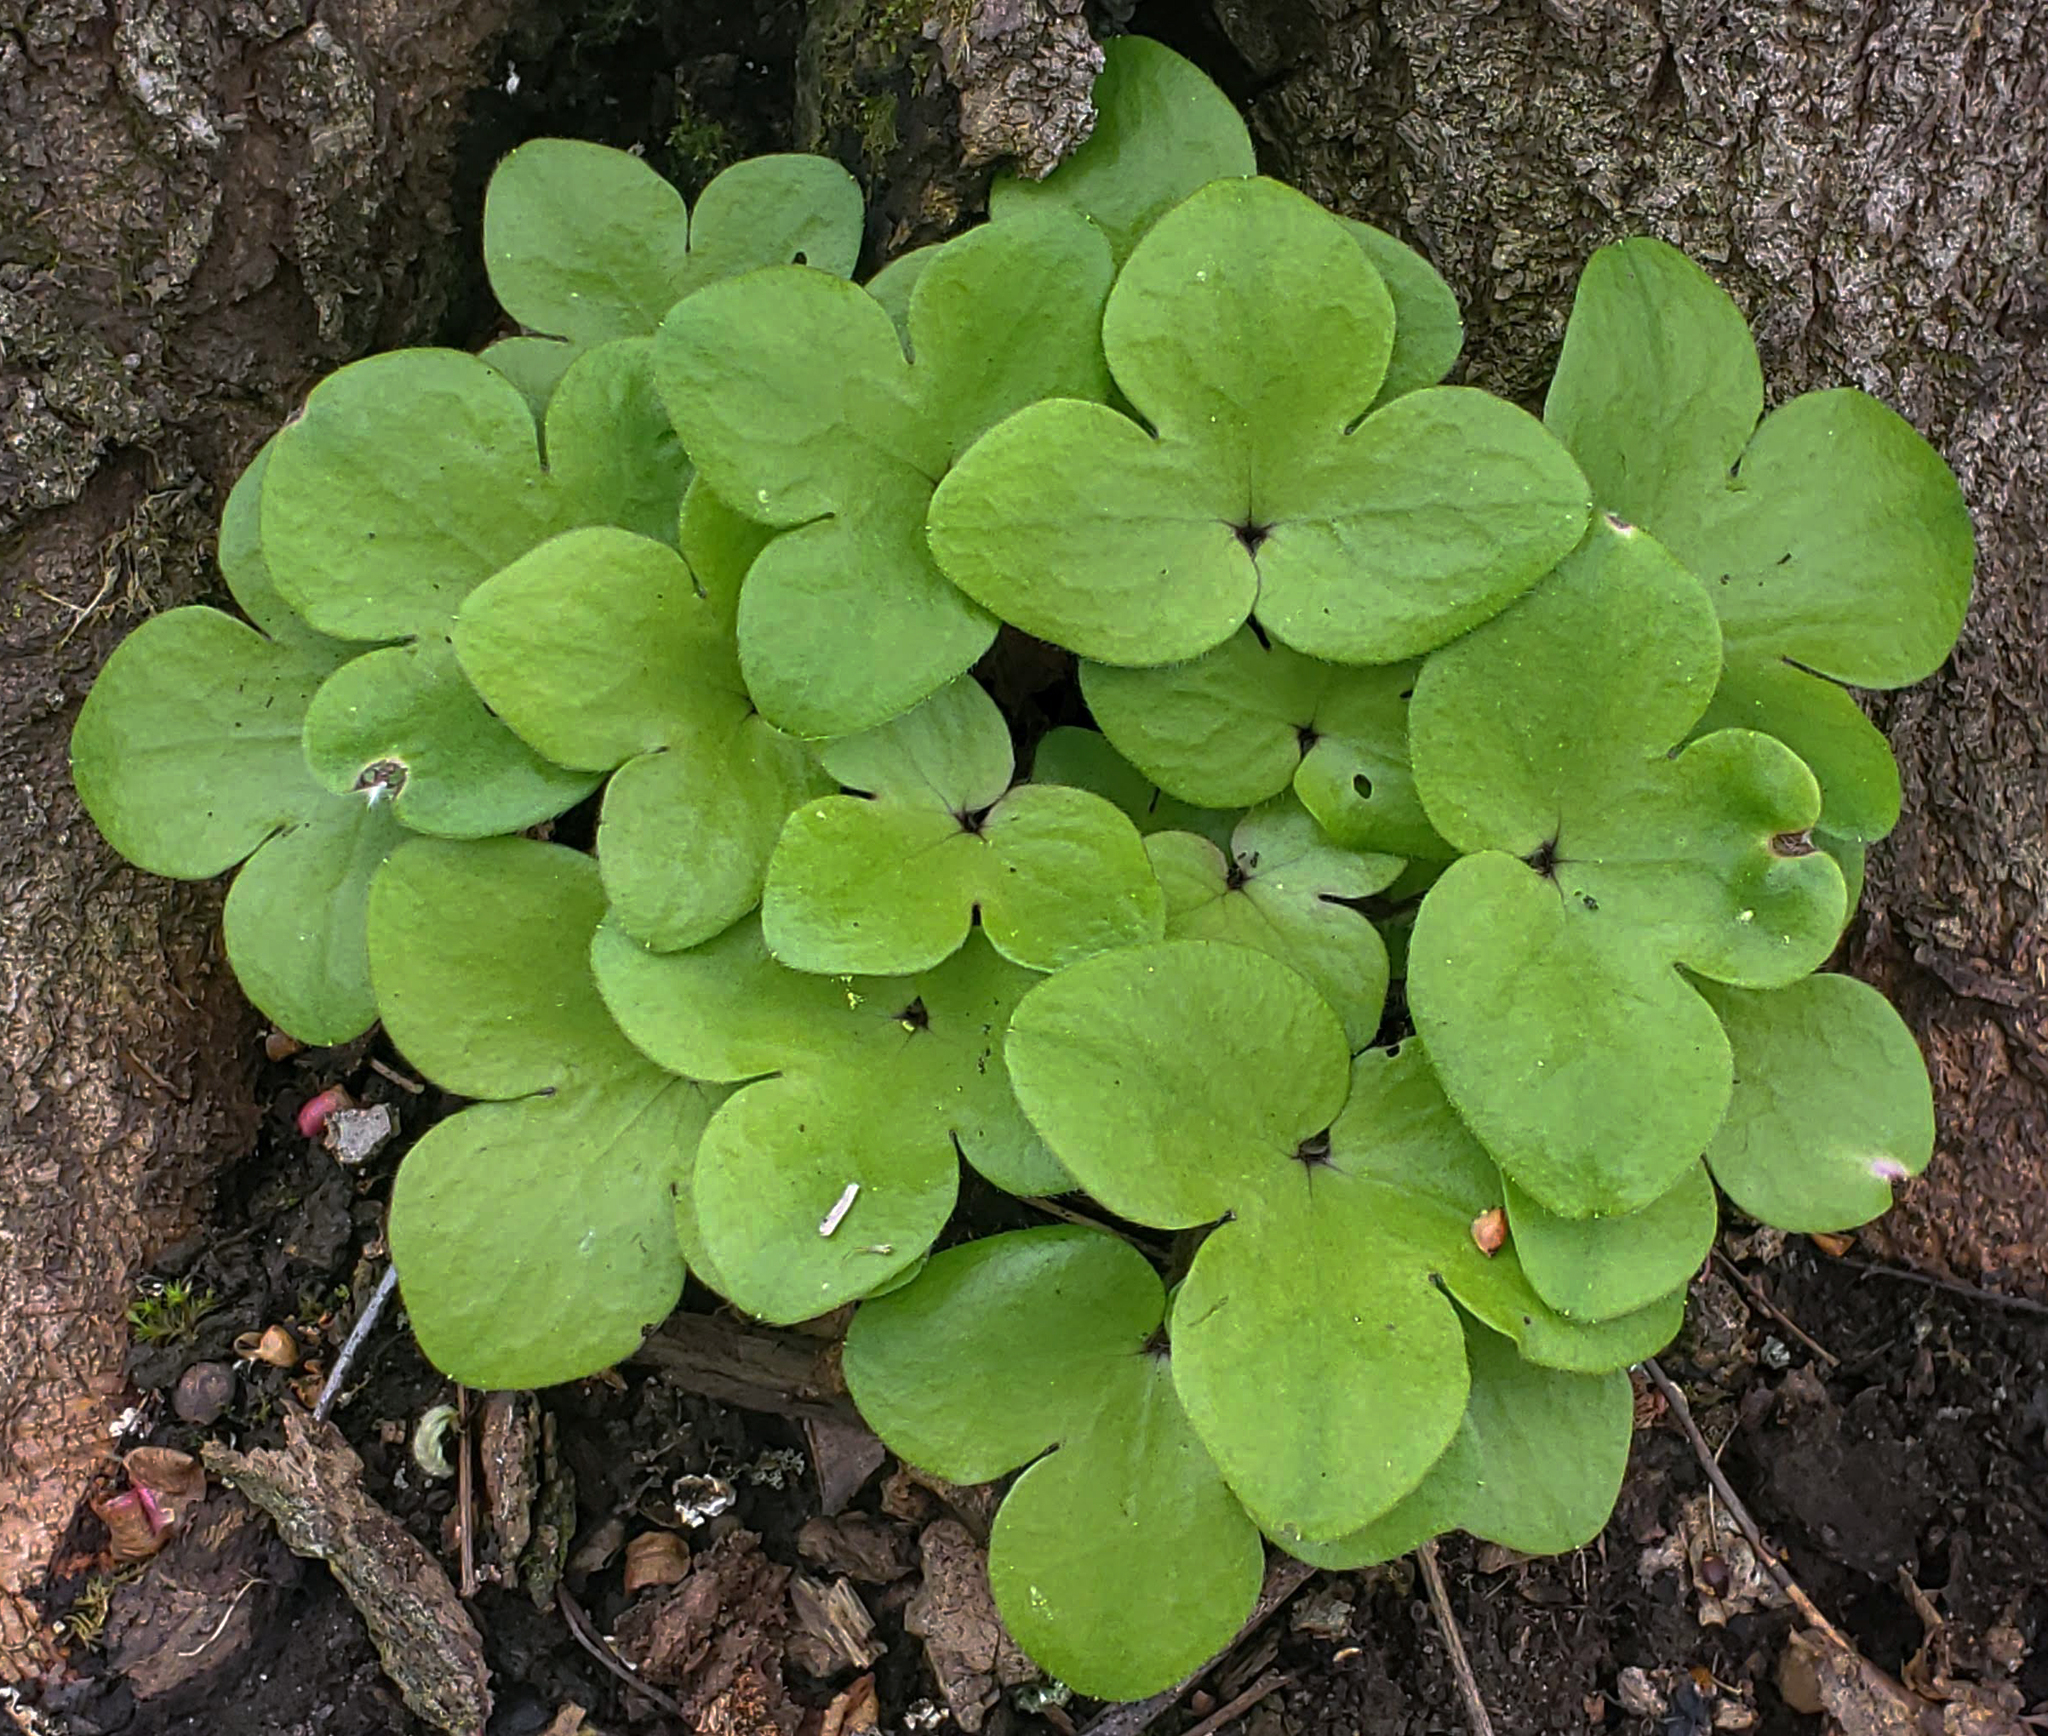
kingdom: Plantae
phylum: Tracheophyta
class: Magnoliopsida
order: Ranunculales
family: Ranunculaceae
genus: Hepatica
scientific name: Hepatica americana
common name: American hepatica
